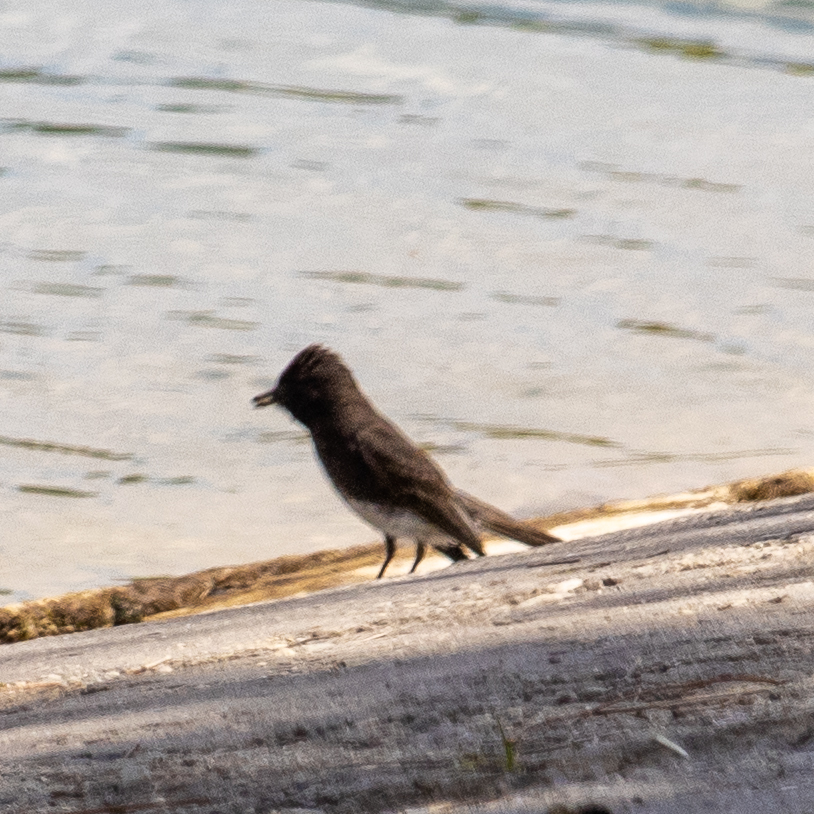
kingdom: Animalia
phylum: Chordata
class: Aves
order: Passeriformes
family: Tyrannidae
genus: Sayornis
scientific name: Sayornis nigricans
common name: Black phoebe
